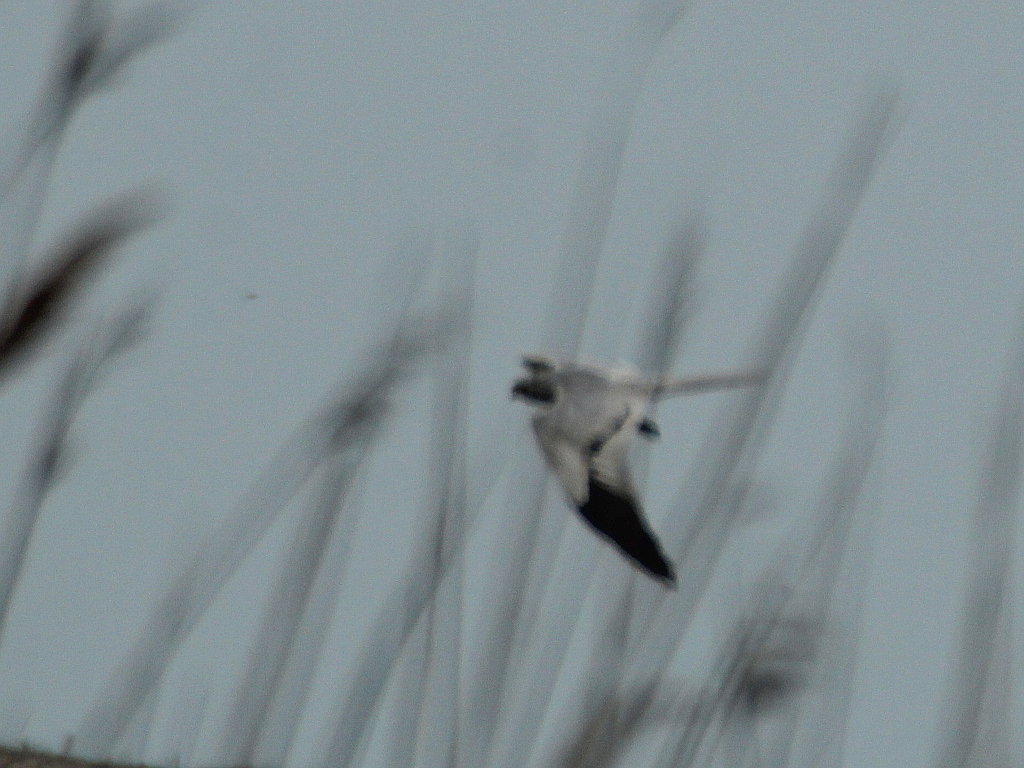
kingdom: Animalia
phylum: Chordata
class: Aves
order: Accipitriformes
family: Accipitridae
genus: Circus
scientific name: Circus pygargus
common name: Montagu's harrier
